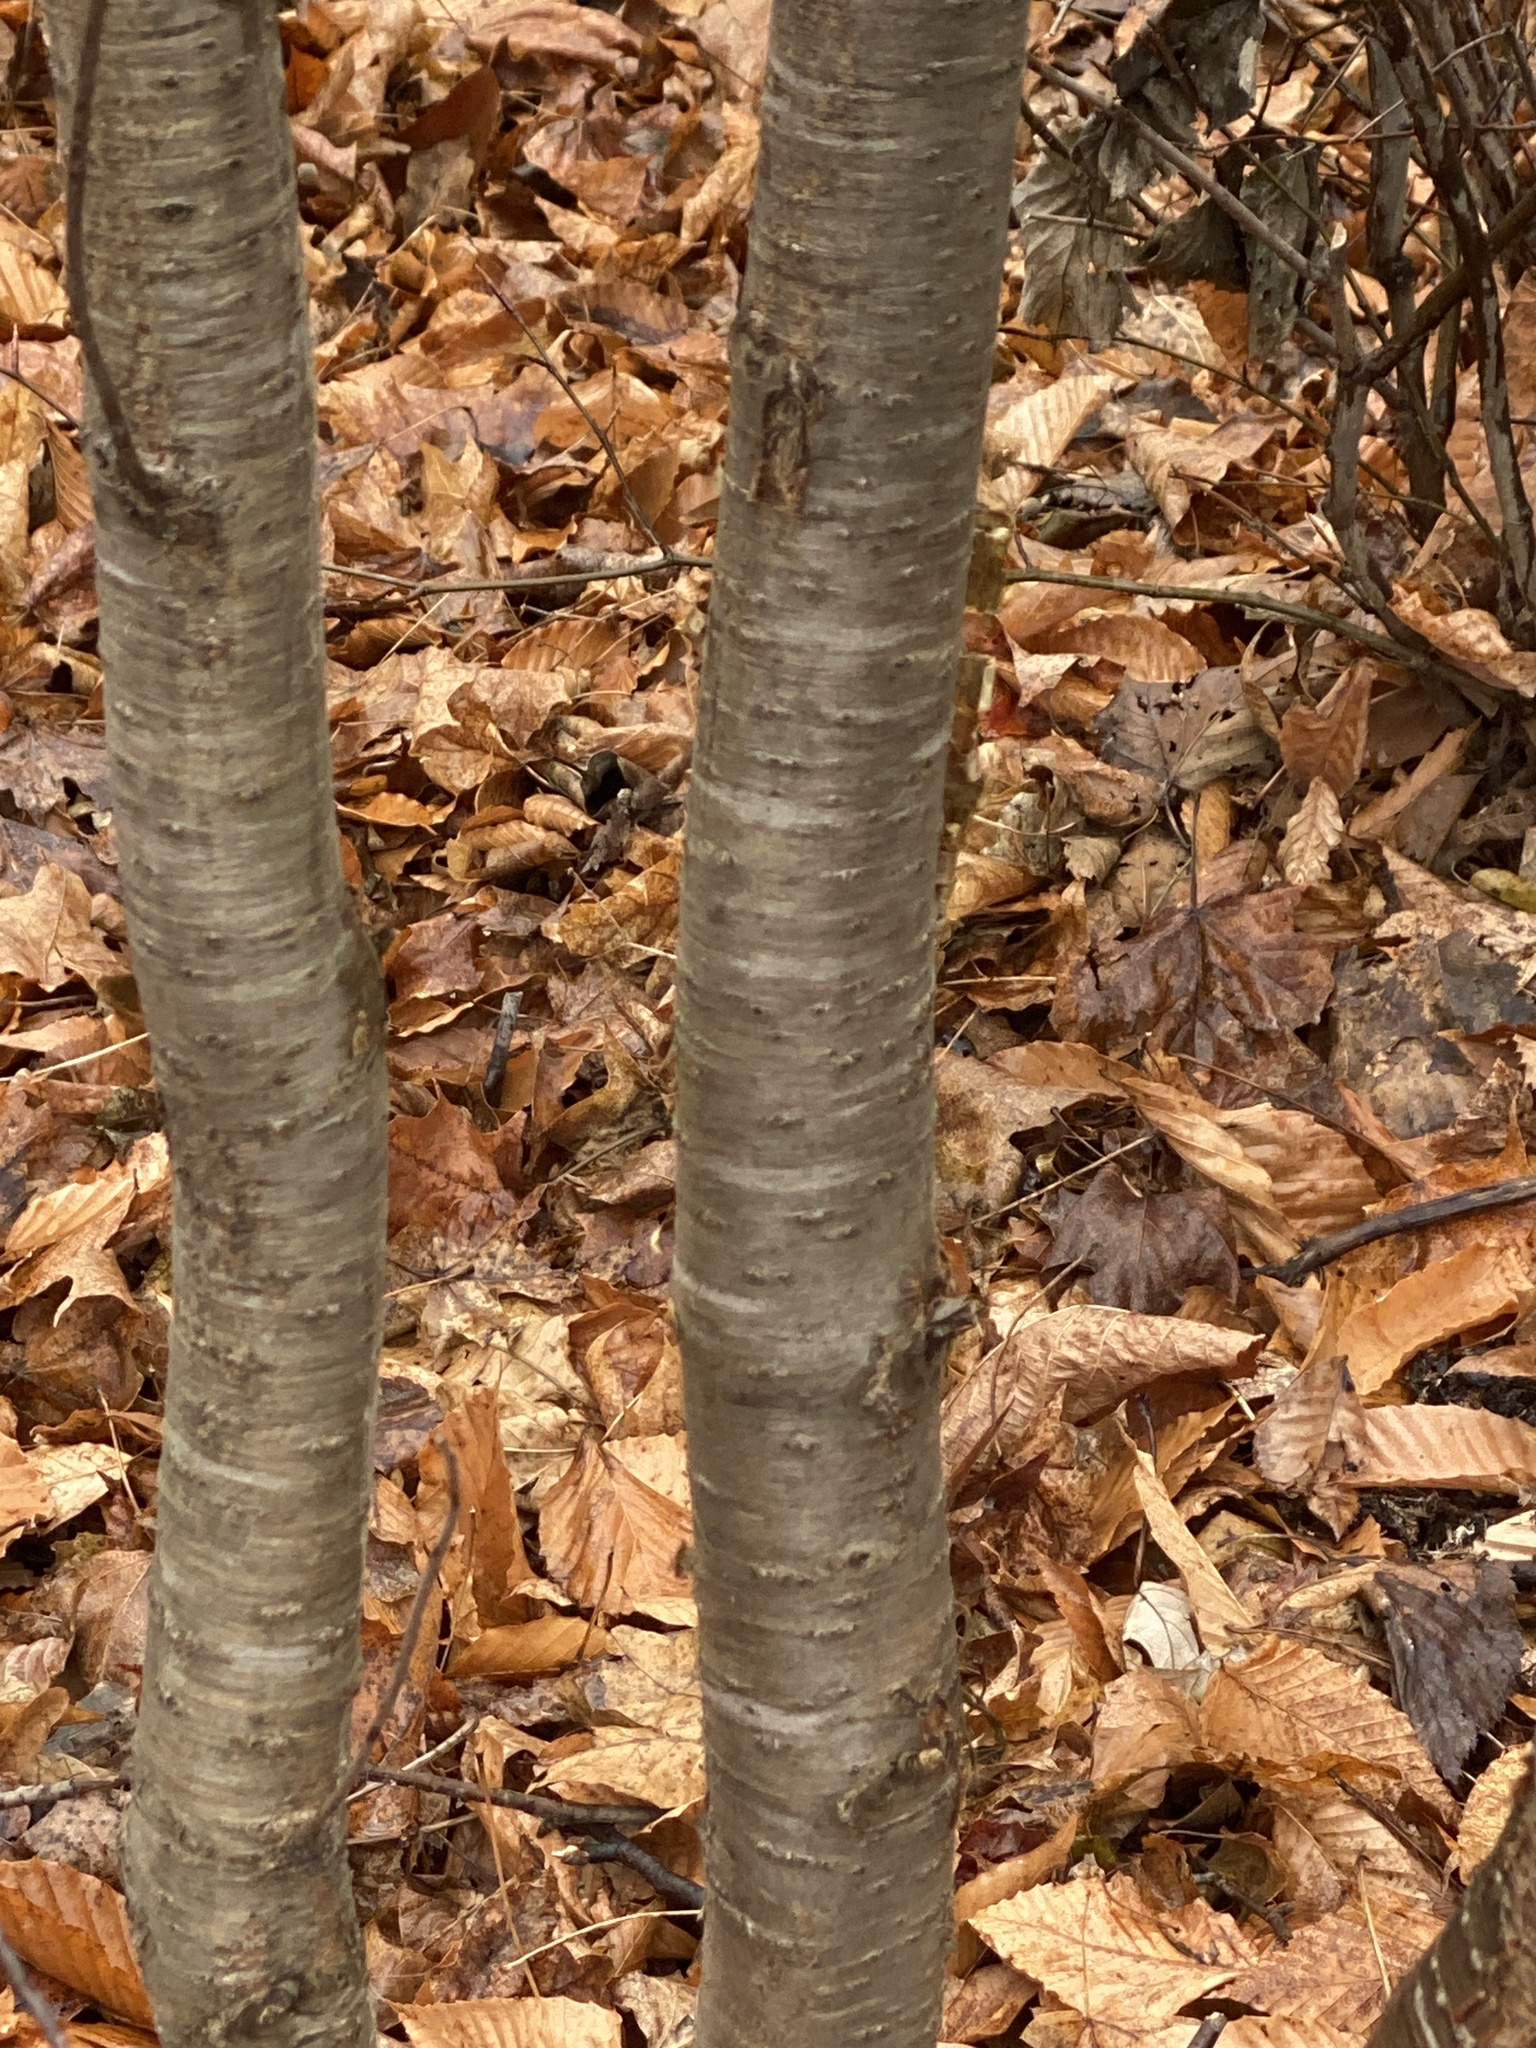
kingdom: Plantae
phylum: Tracheophyta
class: Magnoliopsida
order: Rosales
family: Rhamnaceae
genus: Rhamnus
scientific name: Rhamnus cathartica
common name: Common buckthorn
